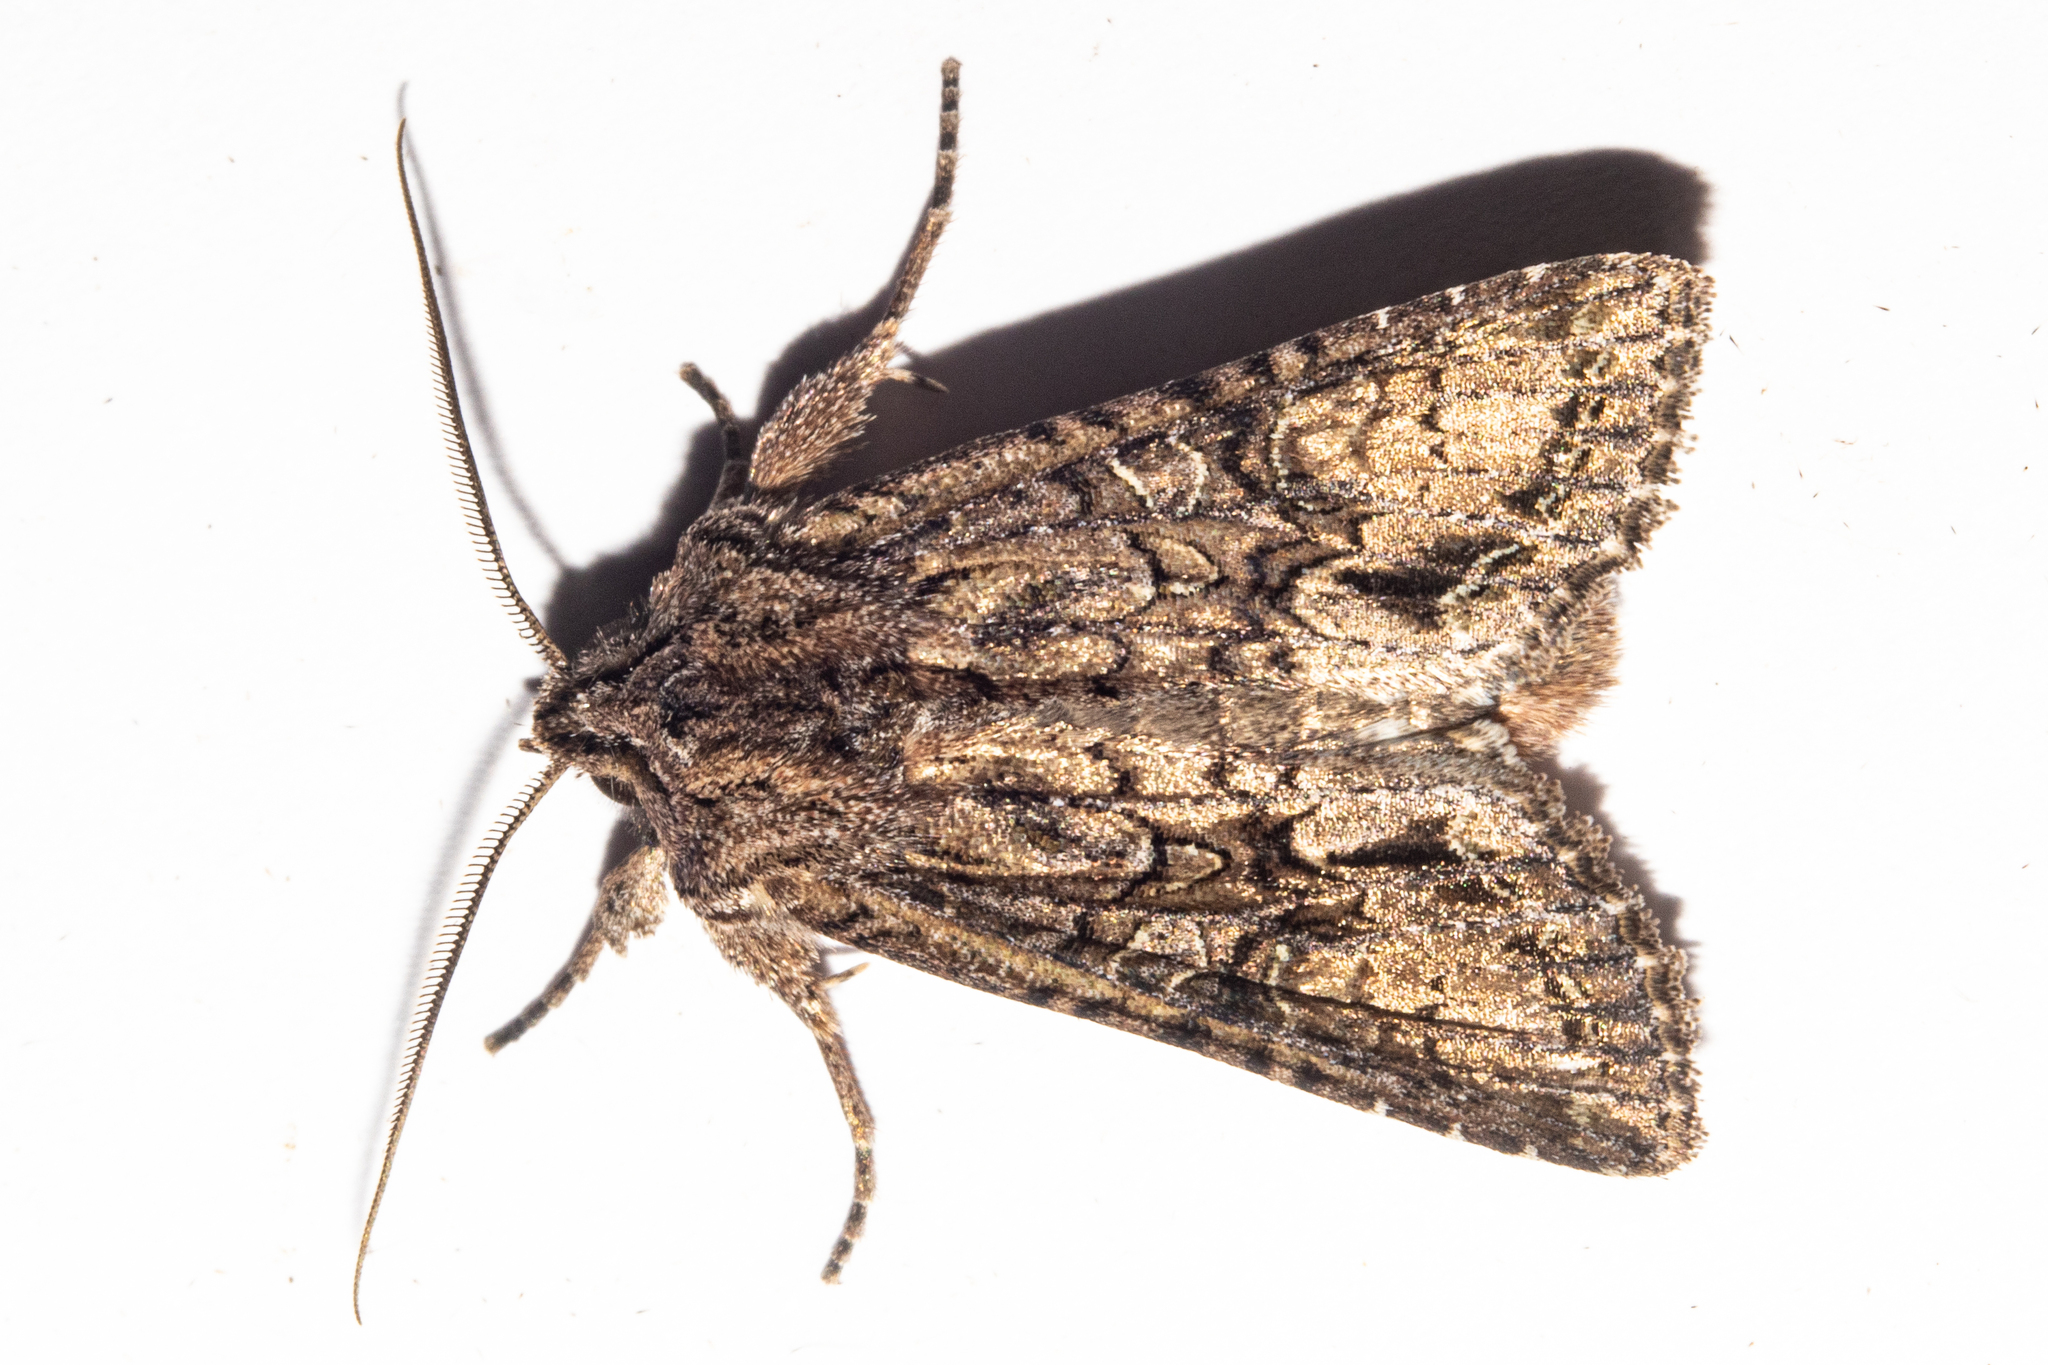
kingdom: Animalia
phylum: Arthropoda
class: Insecta
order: Lepidoptera
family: Noctuidae
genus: Ichneutica
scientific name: Ichneutica mutans
